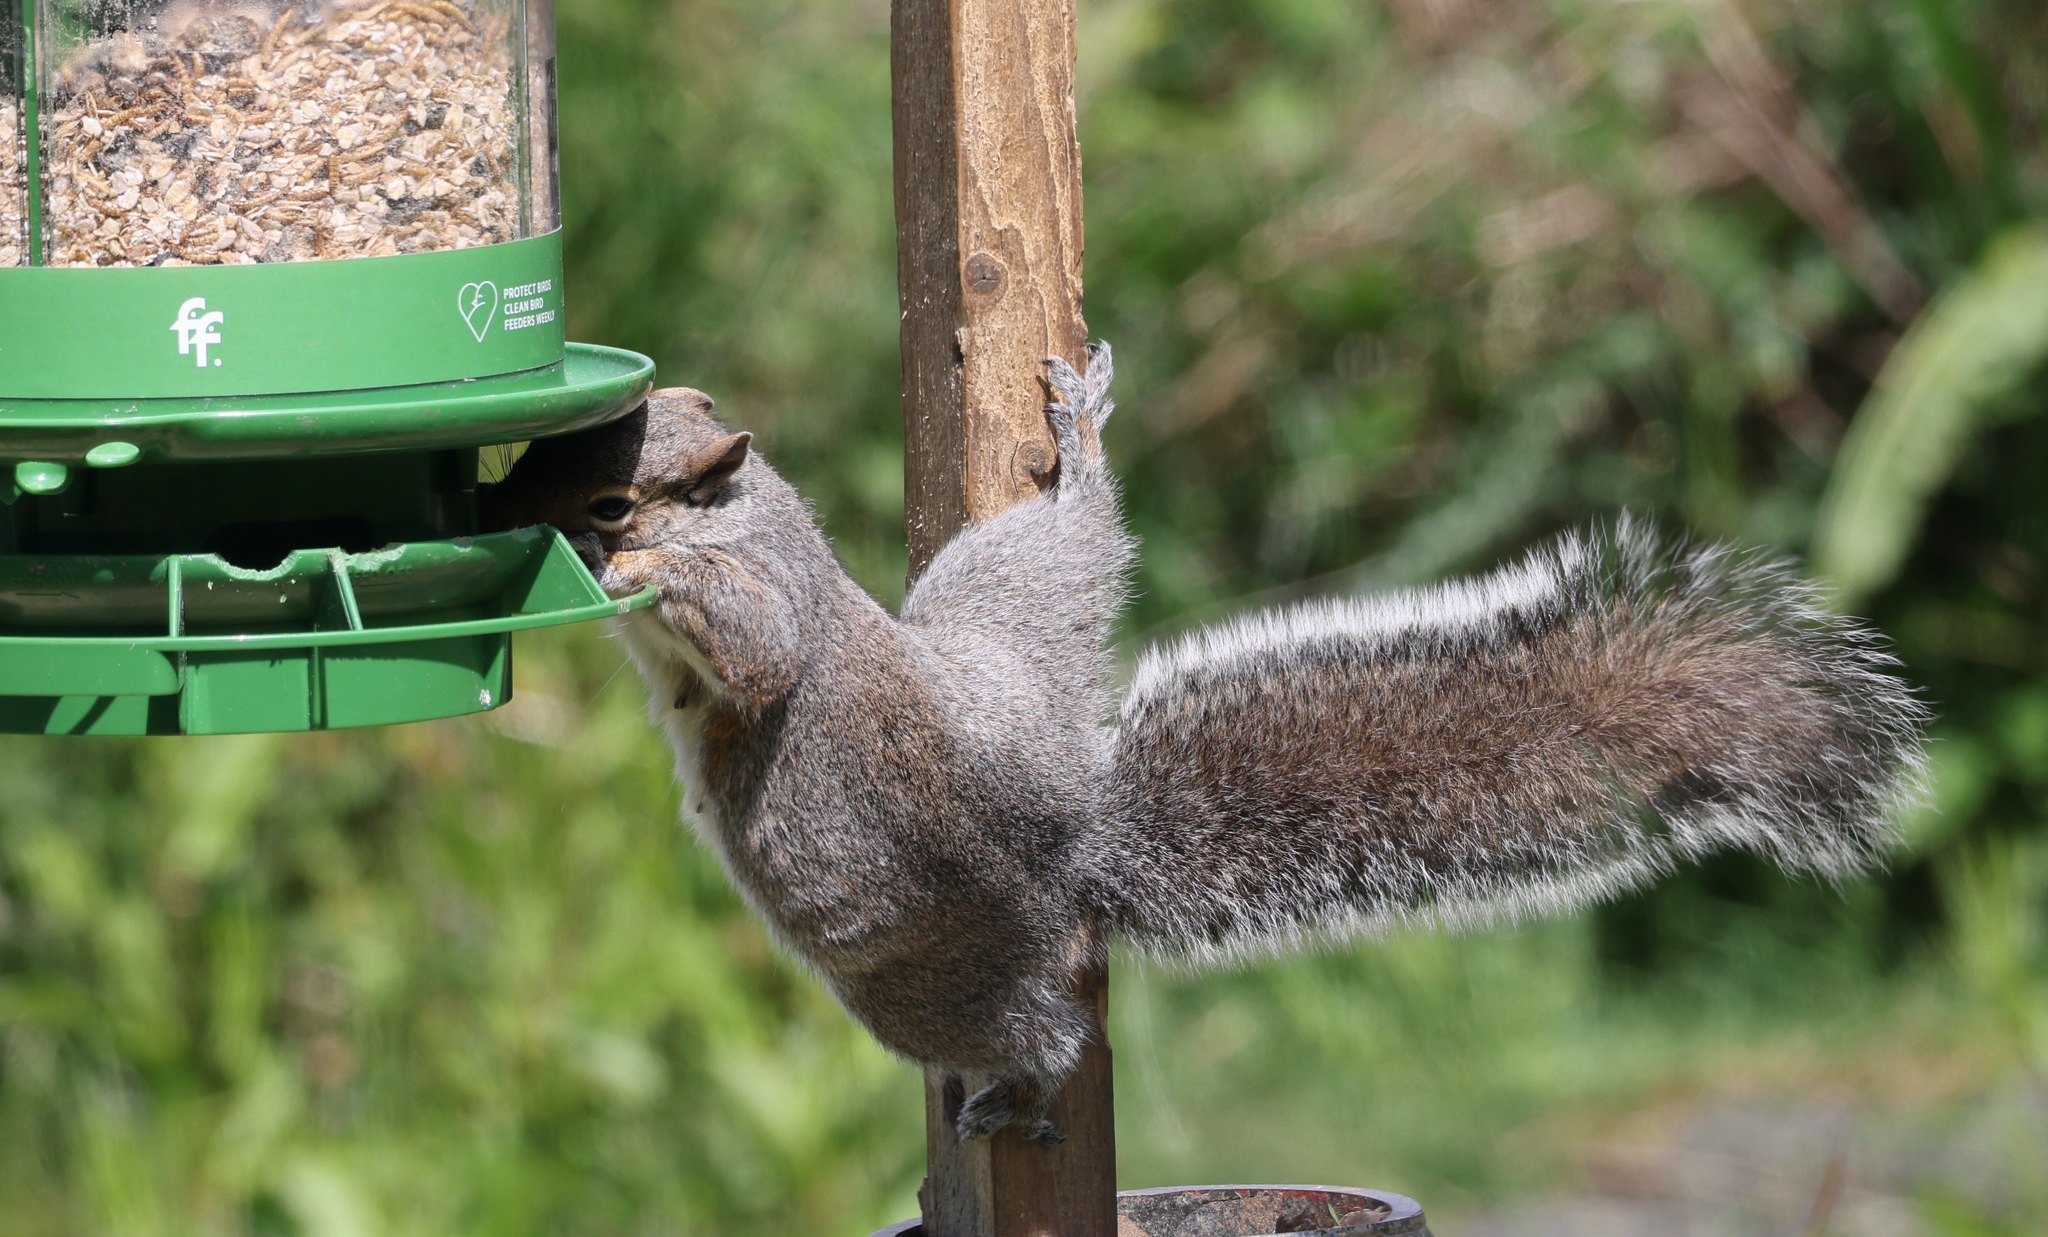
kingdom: Animalia
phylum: Chordata
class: Mammalia
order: Rodentia
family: Sciuridae
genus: Sciurus
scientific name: Sciurus carolinensis
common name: Eastern gray squirrel
